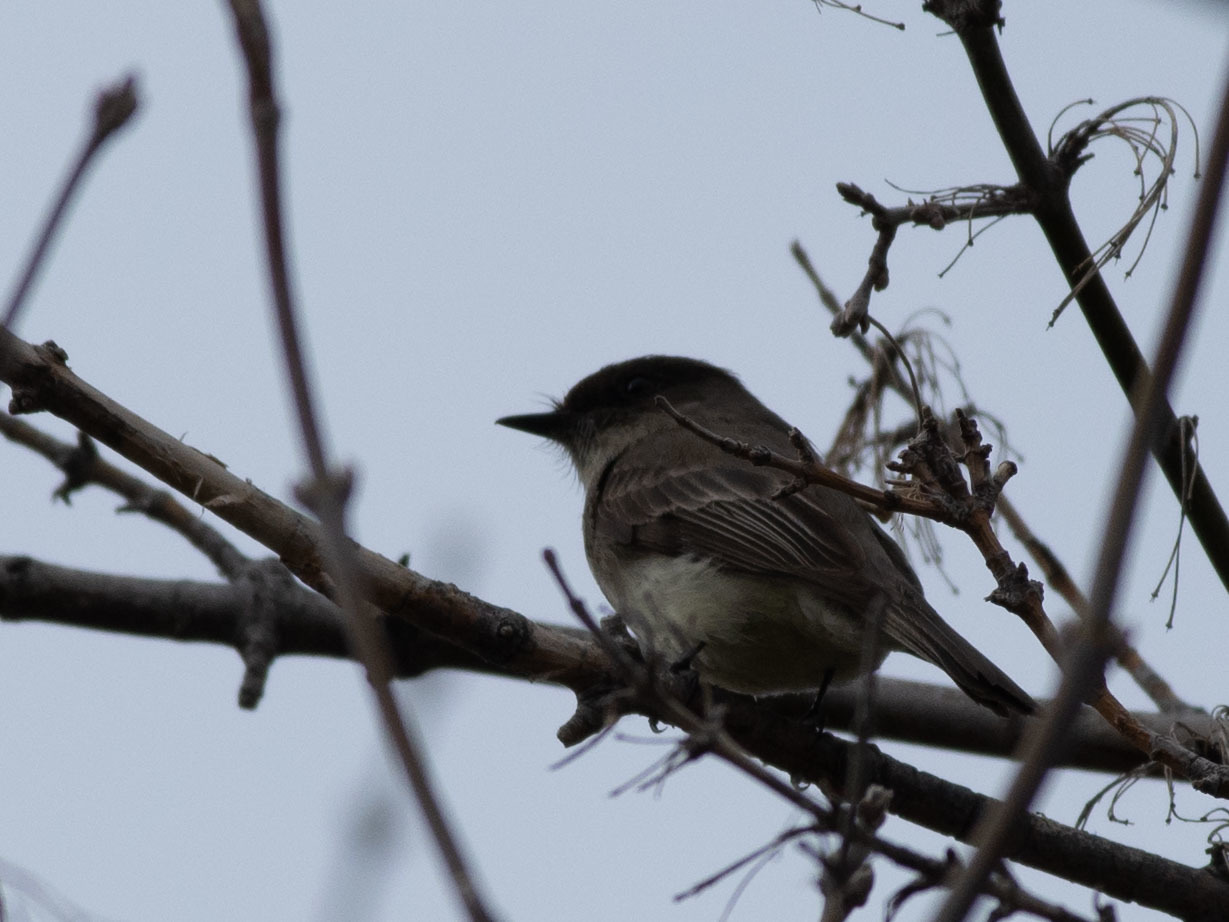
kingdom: Animalia
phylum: Chordata
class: Aves
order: Passeriformes
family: Tyrannidae
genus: Sayornis
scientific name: Sayornis phoebe
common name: Eastern phoebe
